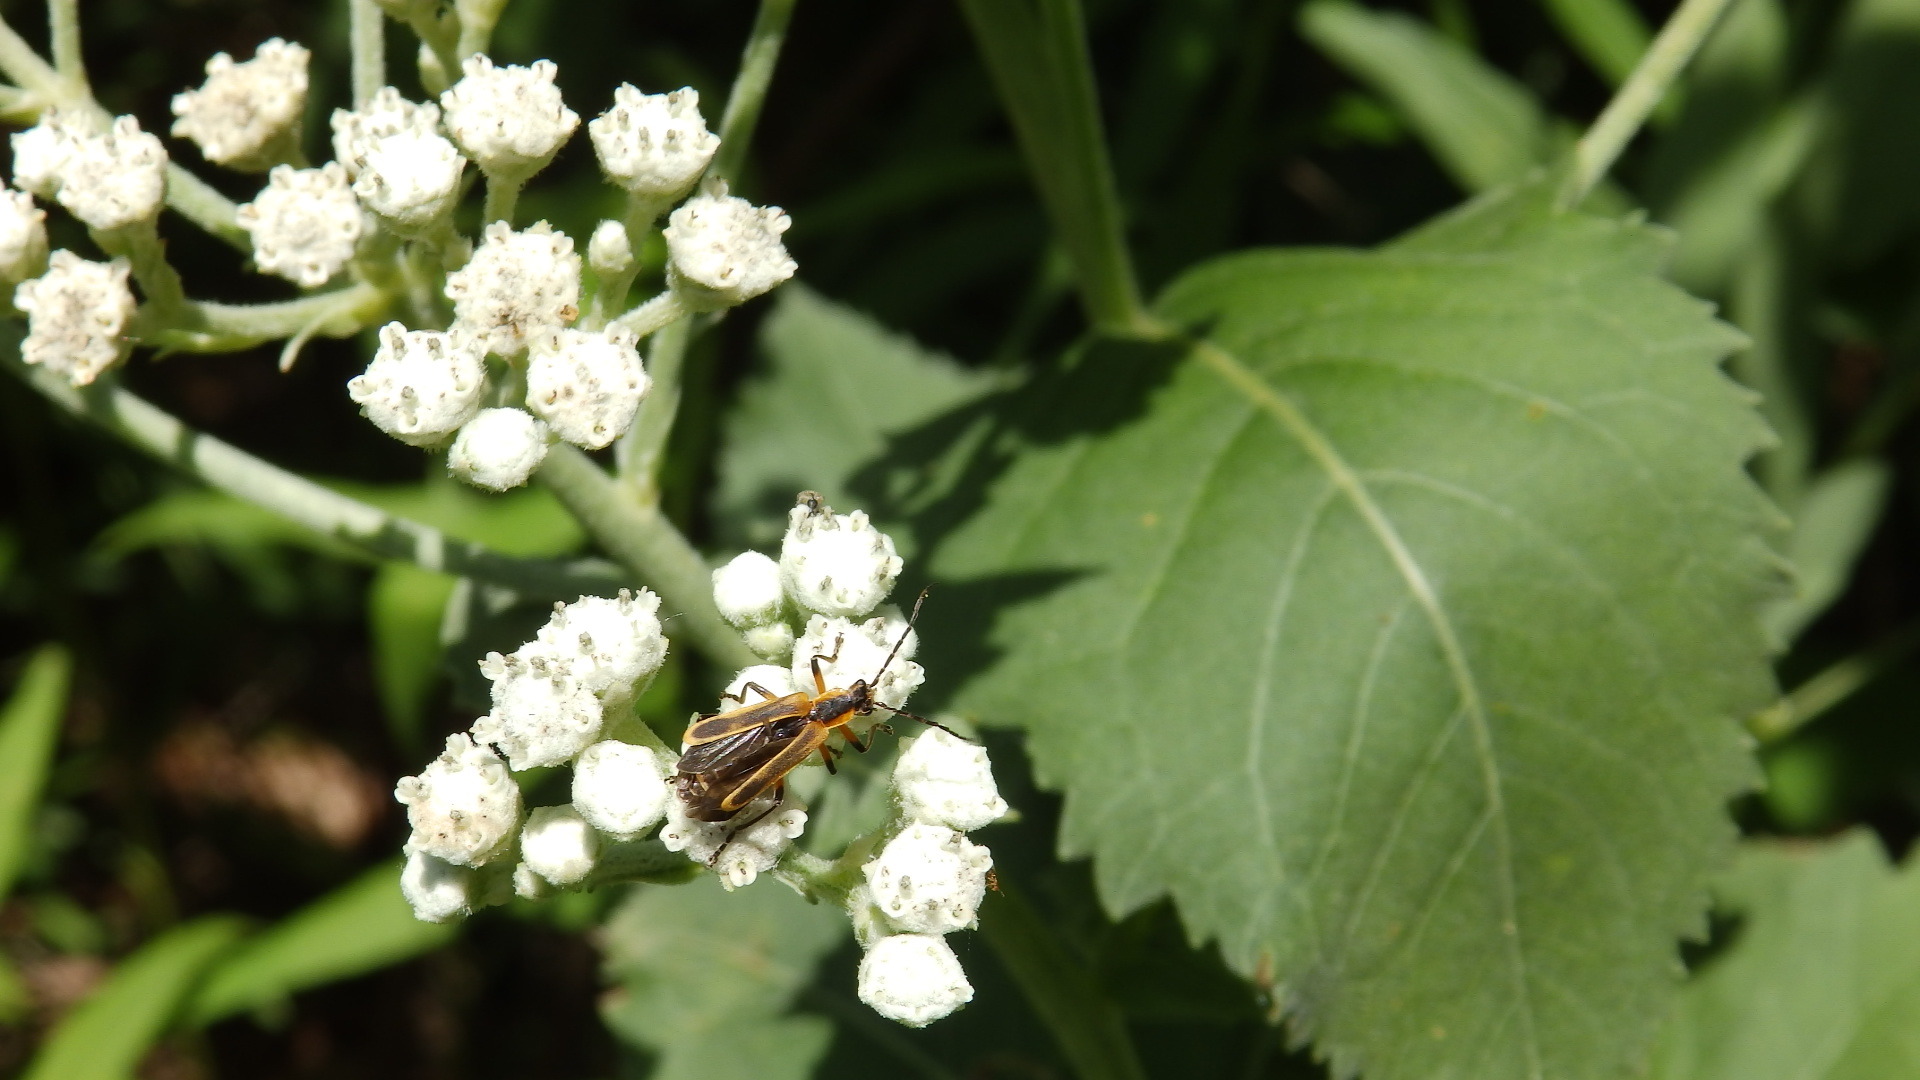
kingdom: Plantae
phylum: Tracheophyta
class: Magnoliopsida
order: Asterales
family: Asteraceae
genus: Parthenium
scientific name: Parthenium integrifolium
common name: American feverfew
